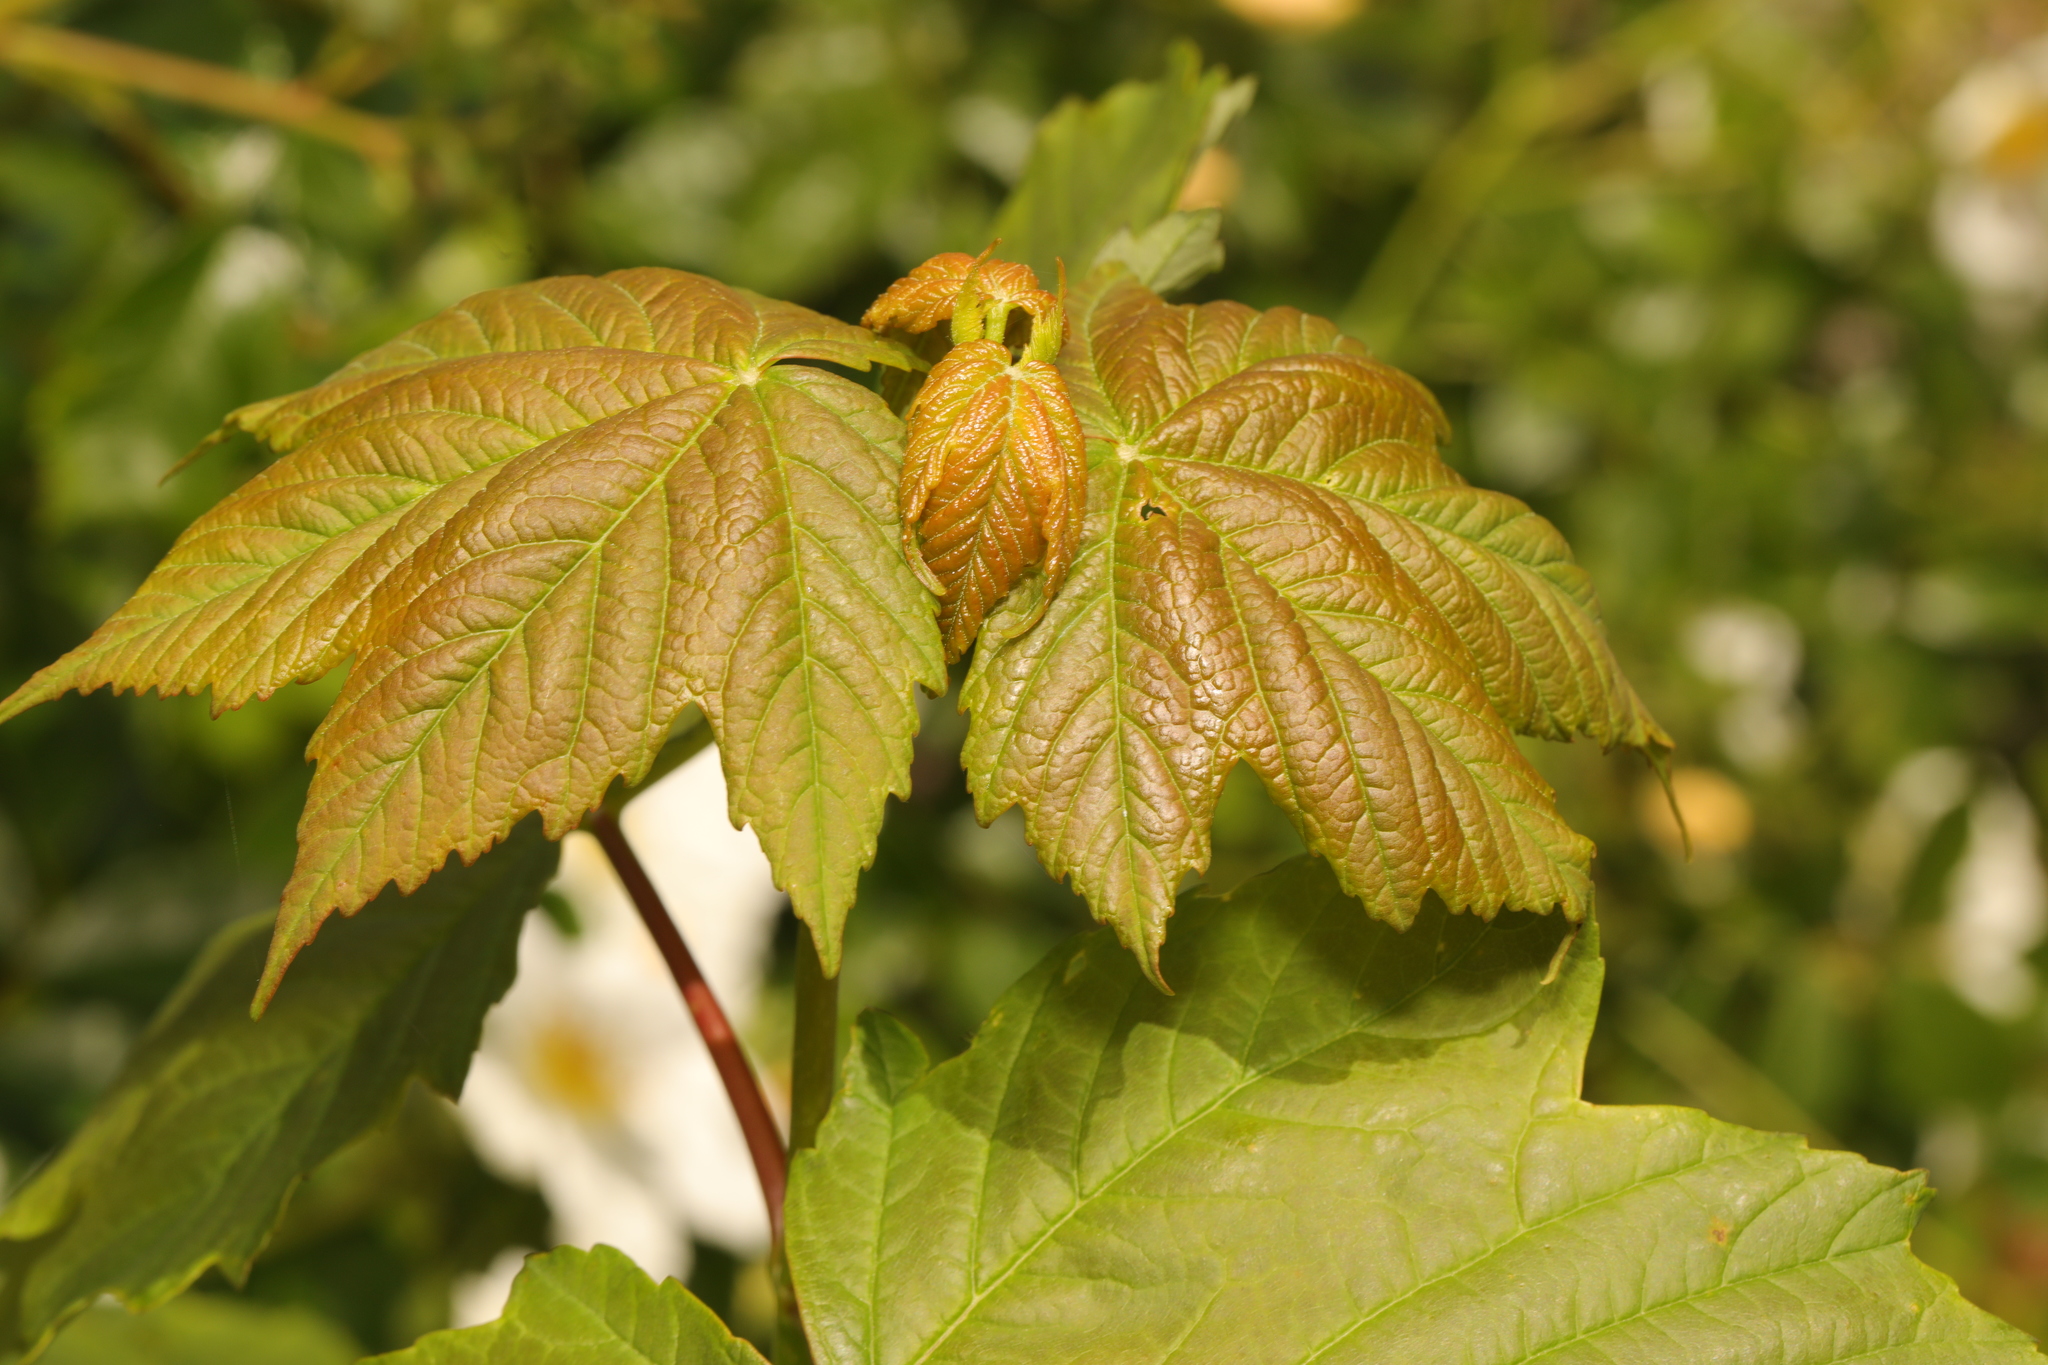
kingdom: Plantae
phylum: Tracheophyta
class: Magnoliopsida
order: Sapindales
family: Sapindaceae
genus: Acer
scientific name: Acer pseudoplatanus
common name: Sycamore
